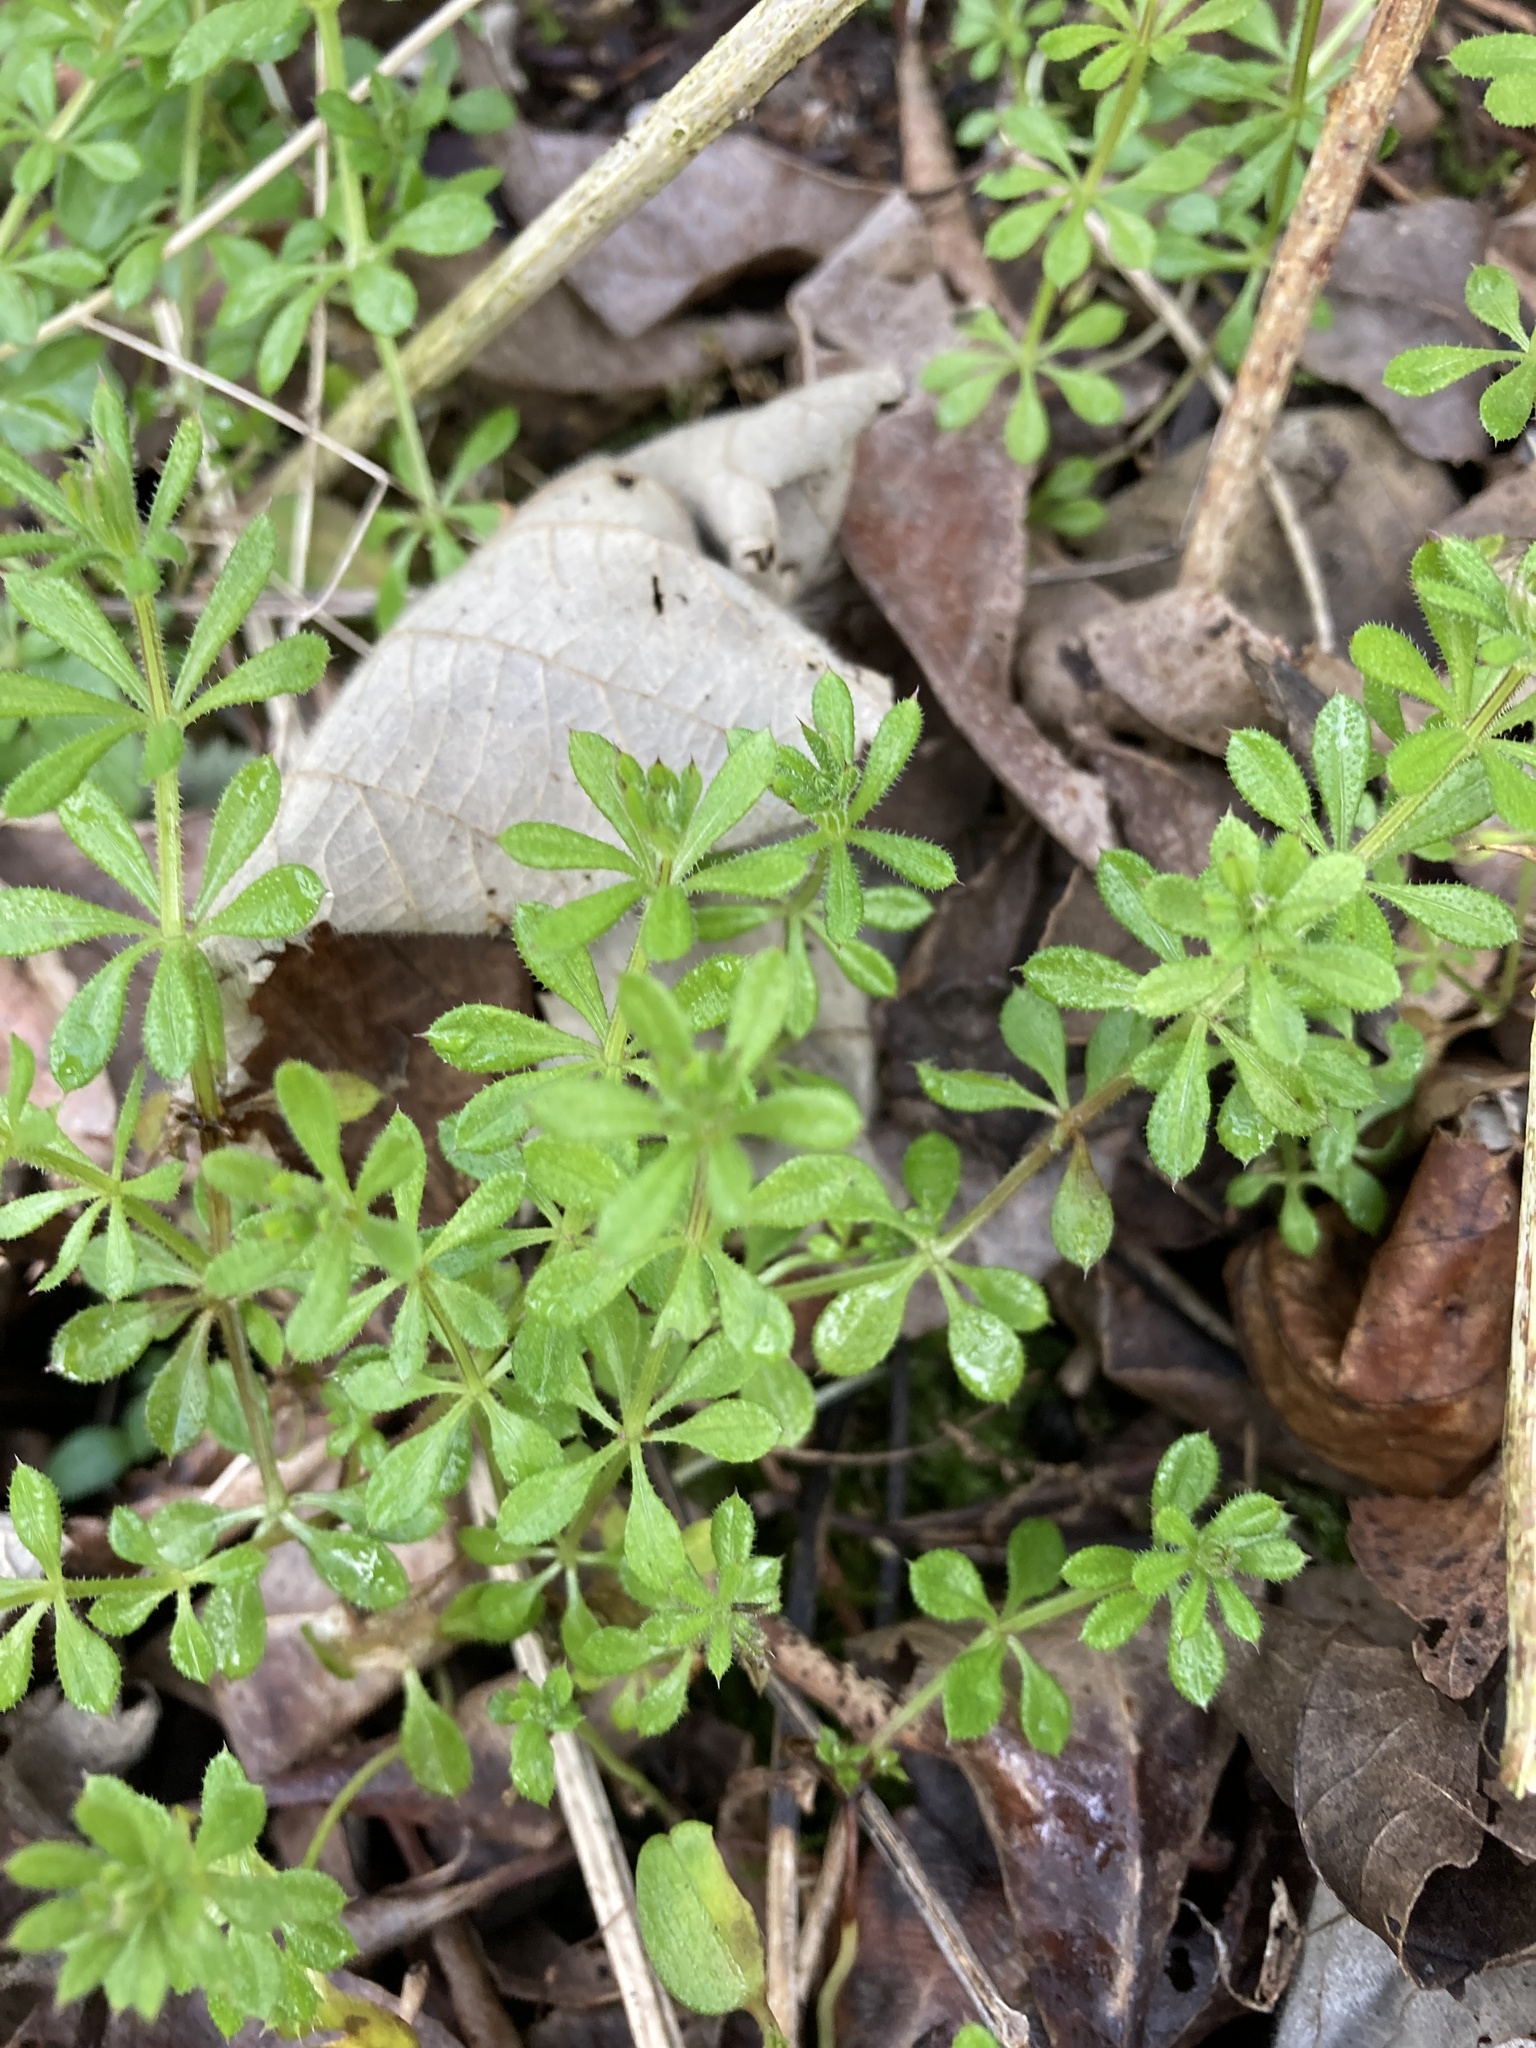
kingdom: Plantae
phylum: Tracheophyta
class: Magnoliopsida
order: Gentianales
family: Rubiaceae
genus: Galium
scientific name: Galium aparine
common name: Cleavers
